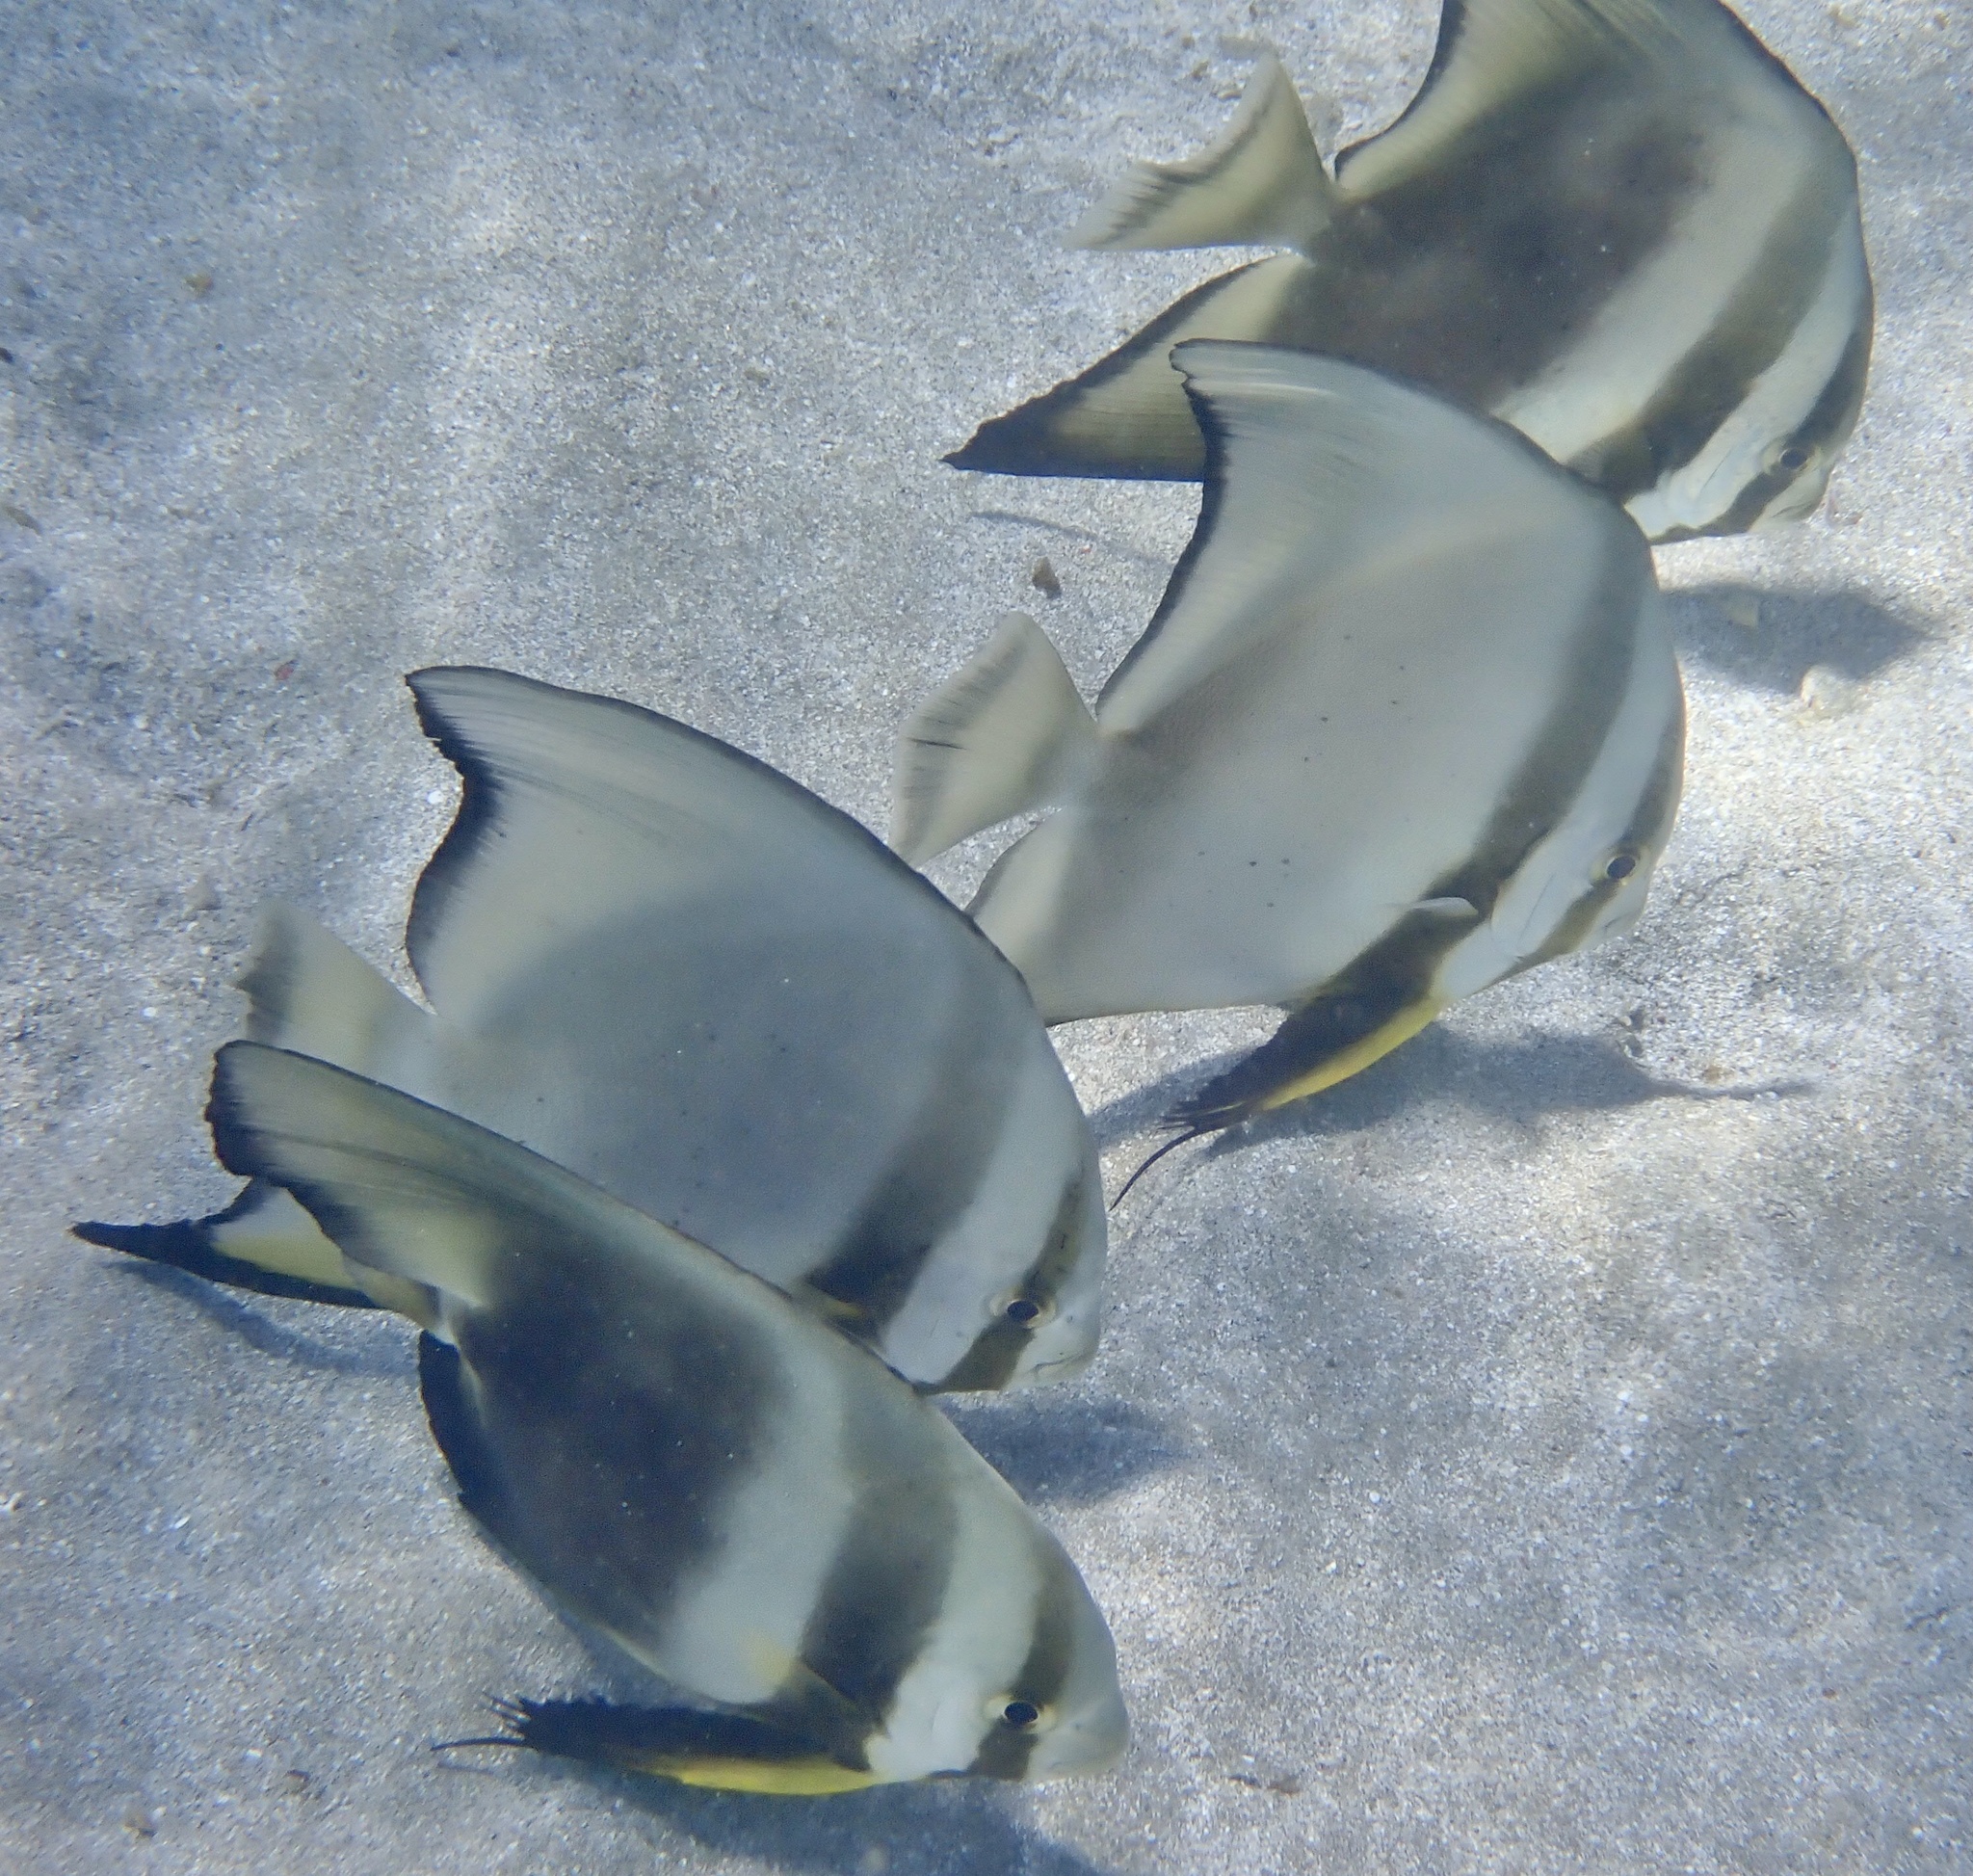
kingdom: Animalia
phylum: Chordata
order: Perciformes
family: Ephippidae
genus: Platax
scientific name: Platax orbicularis
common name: Batfish
